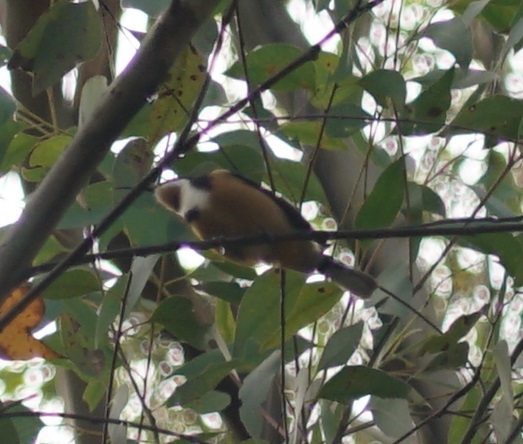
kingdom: Animalia
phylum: Chordata
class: Aves
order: Passeriformes
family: Meliphagidae
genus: Acanthorhynchus
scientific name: Acanthorhynchus tenuirostris
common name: Eastern spinebill
